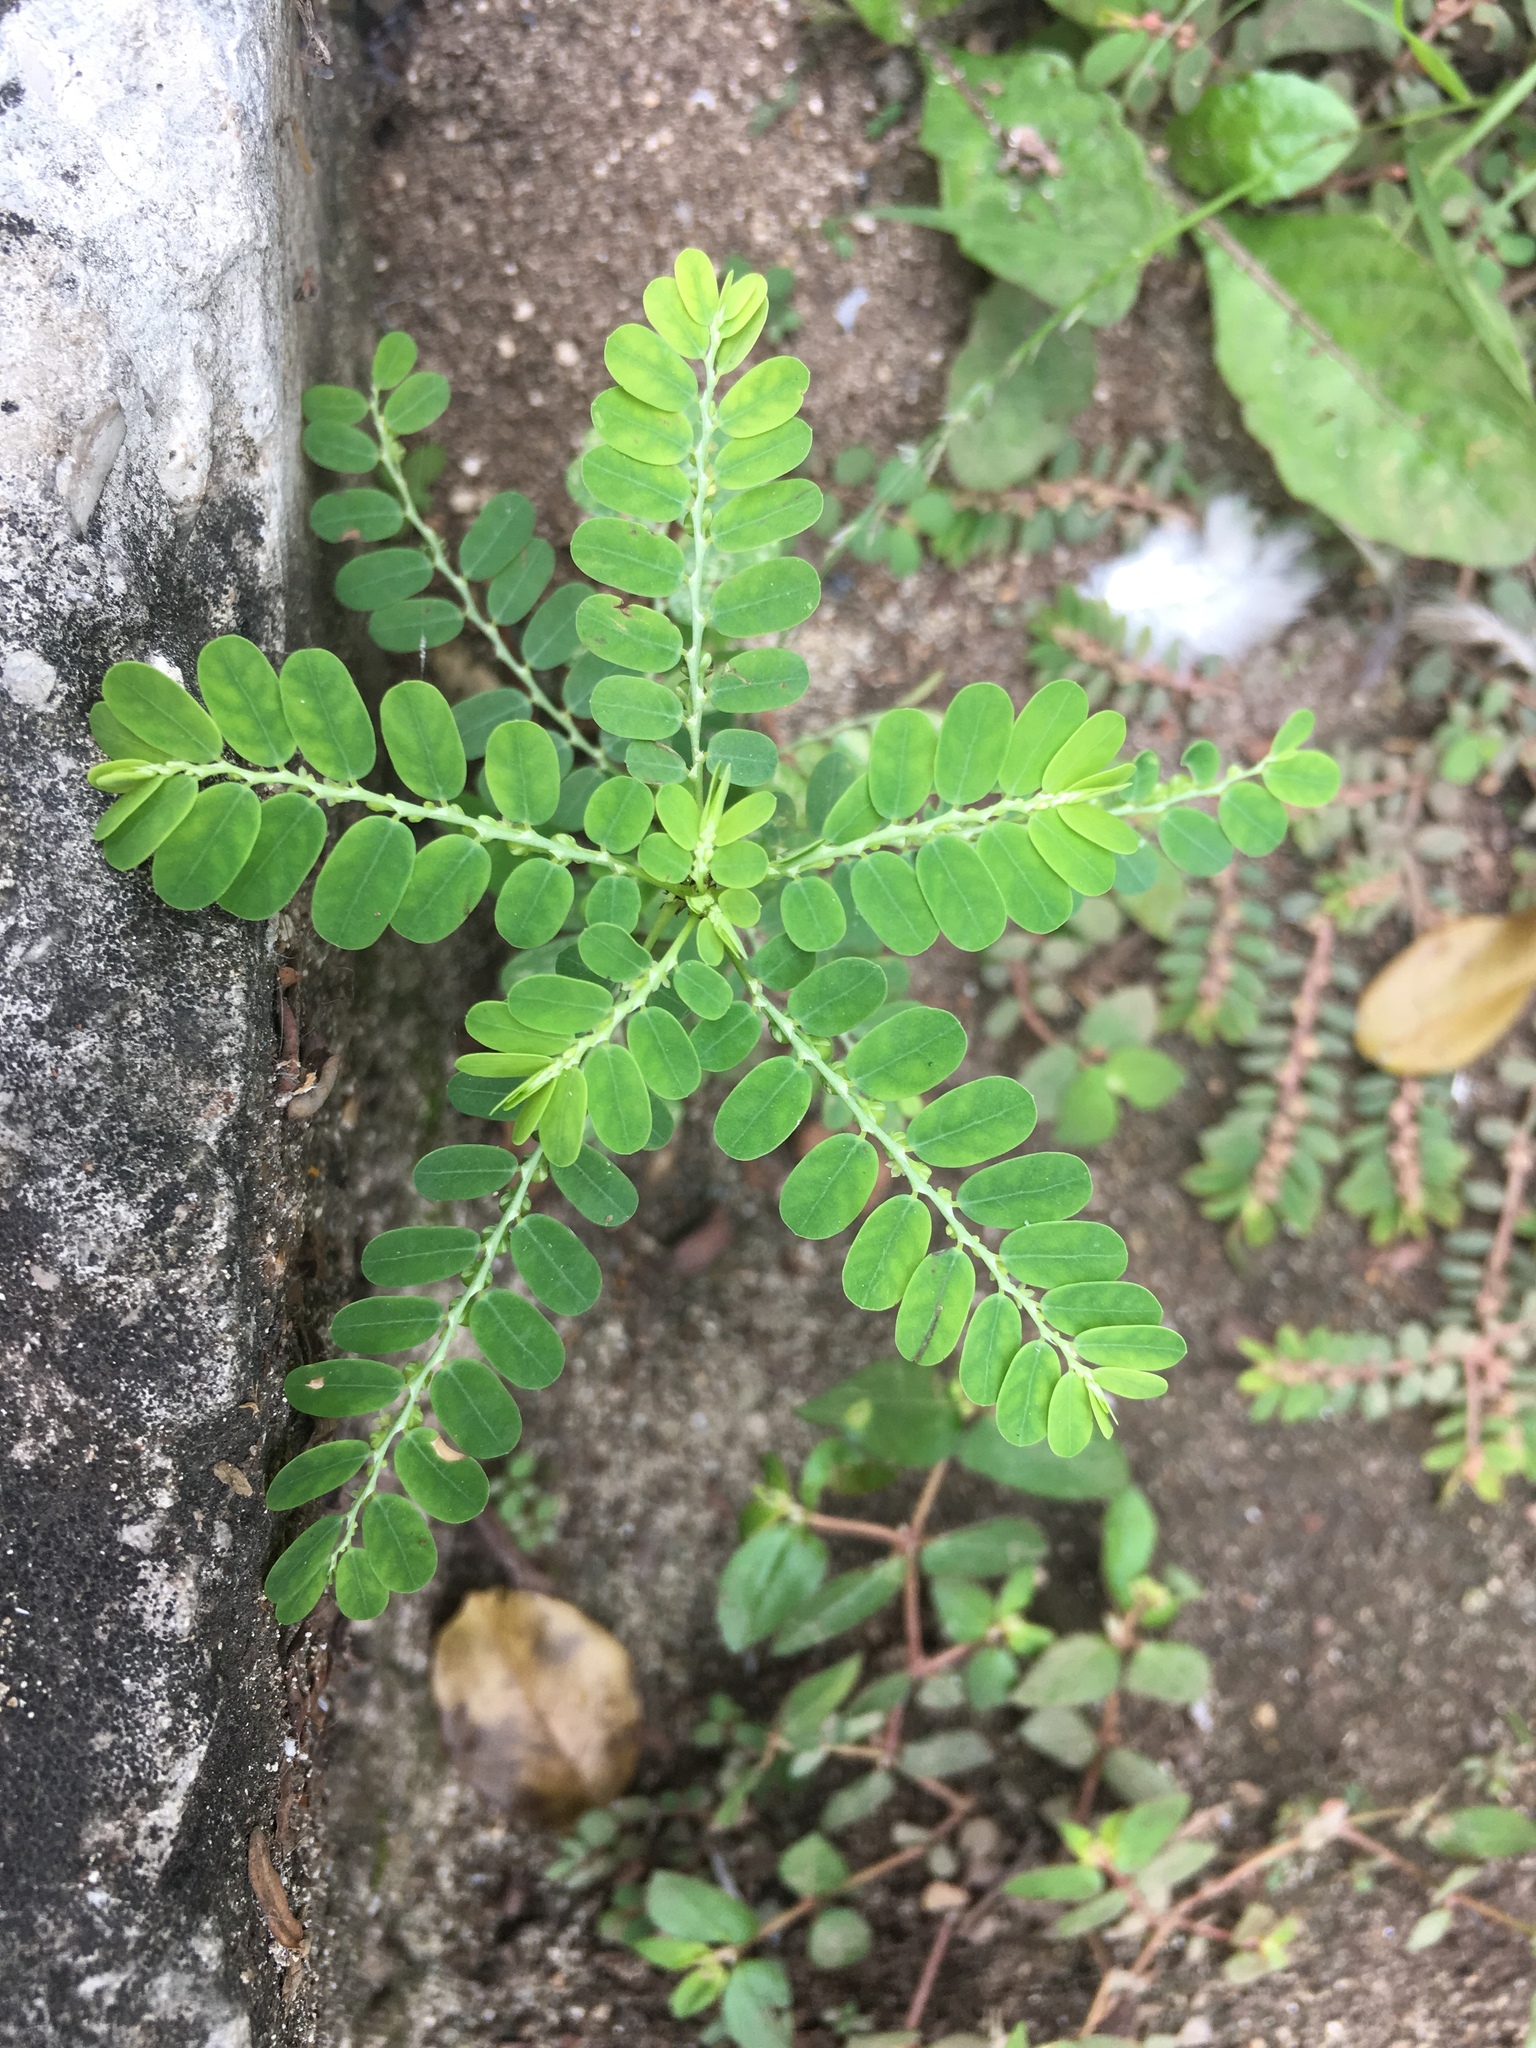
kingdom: Plantae
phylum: Tracheophyta
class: Magnoliopsida
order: Malpighiales
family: Phyllanthaceae
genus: Phyllanthus
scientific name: Phyllanthus amarus
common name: Carry me seed
